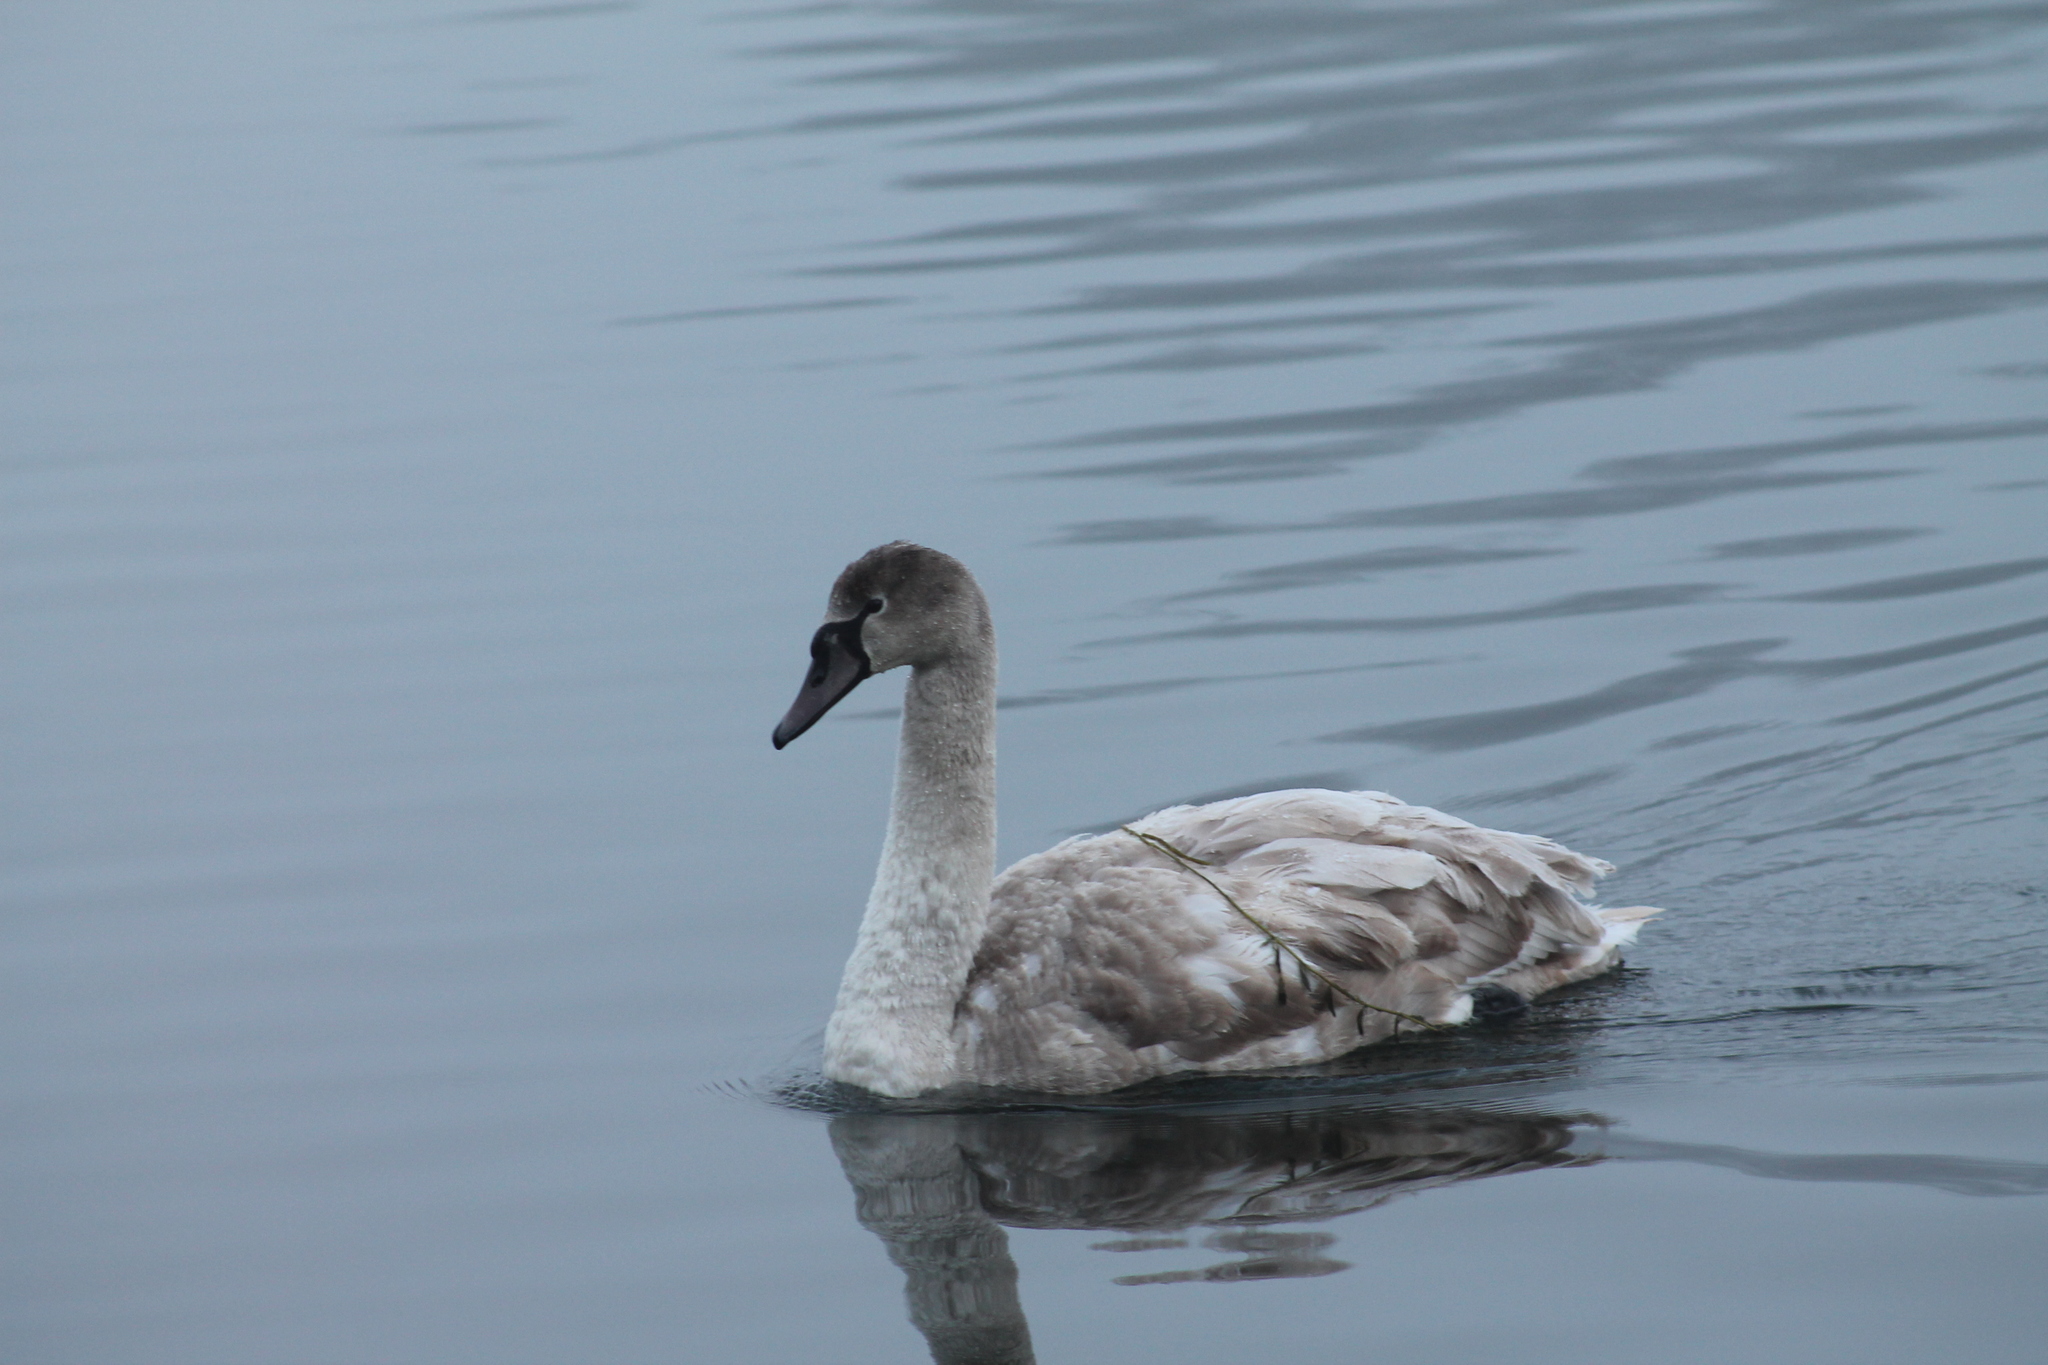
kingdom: Animalia
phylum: Chordata
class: Aves
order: Anseriformes
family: Anatidae
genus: Cygnus
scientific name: Cygnus olor
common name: Mute swan
